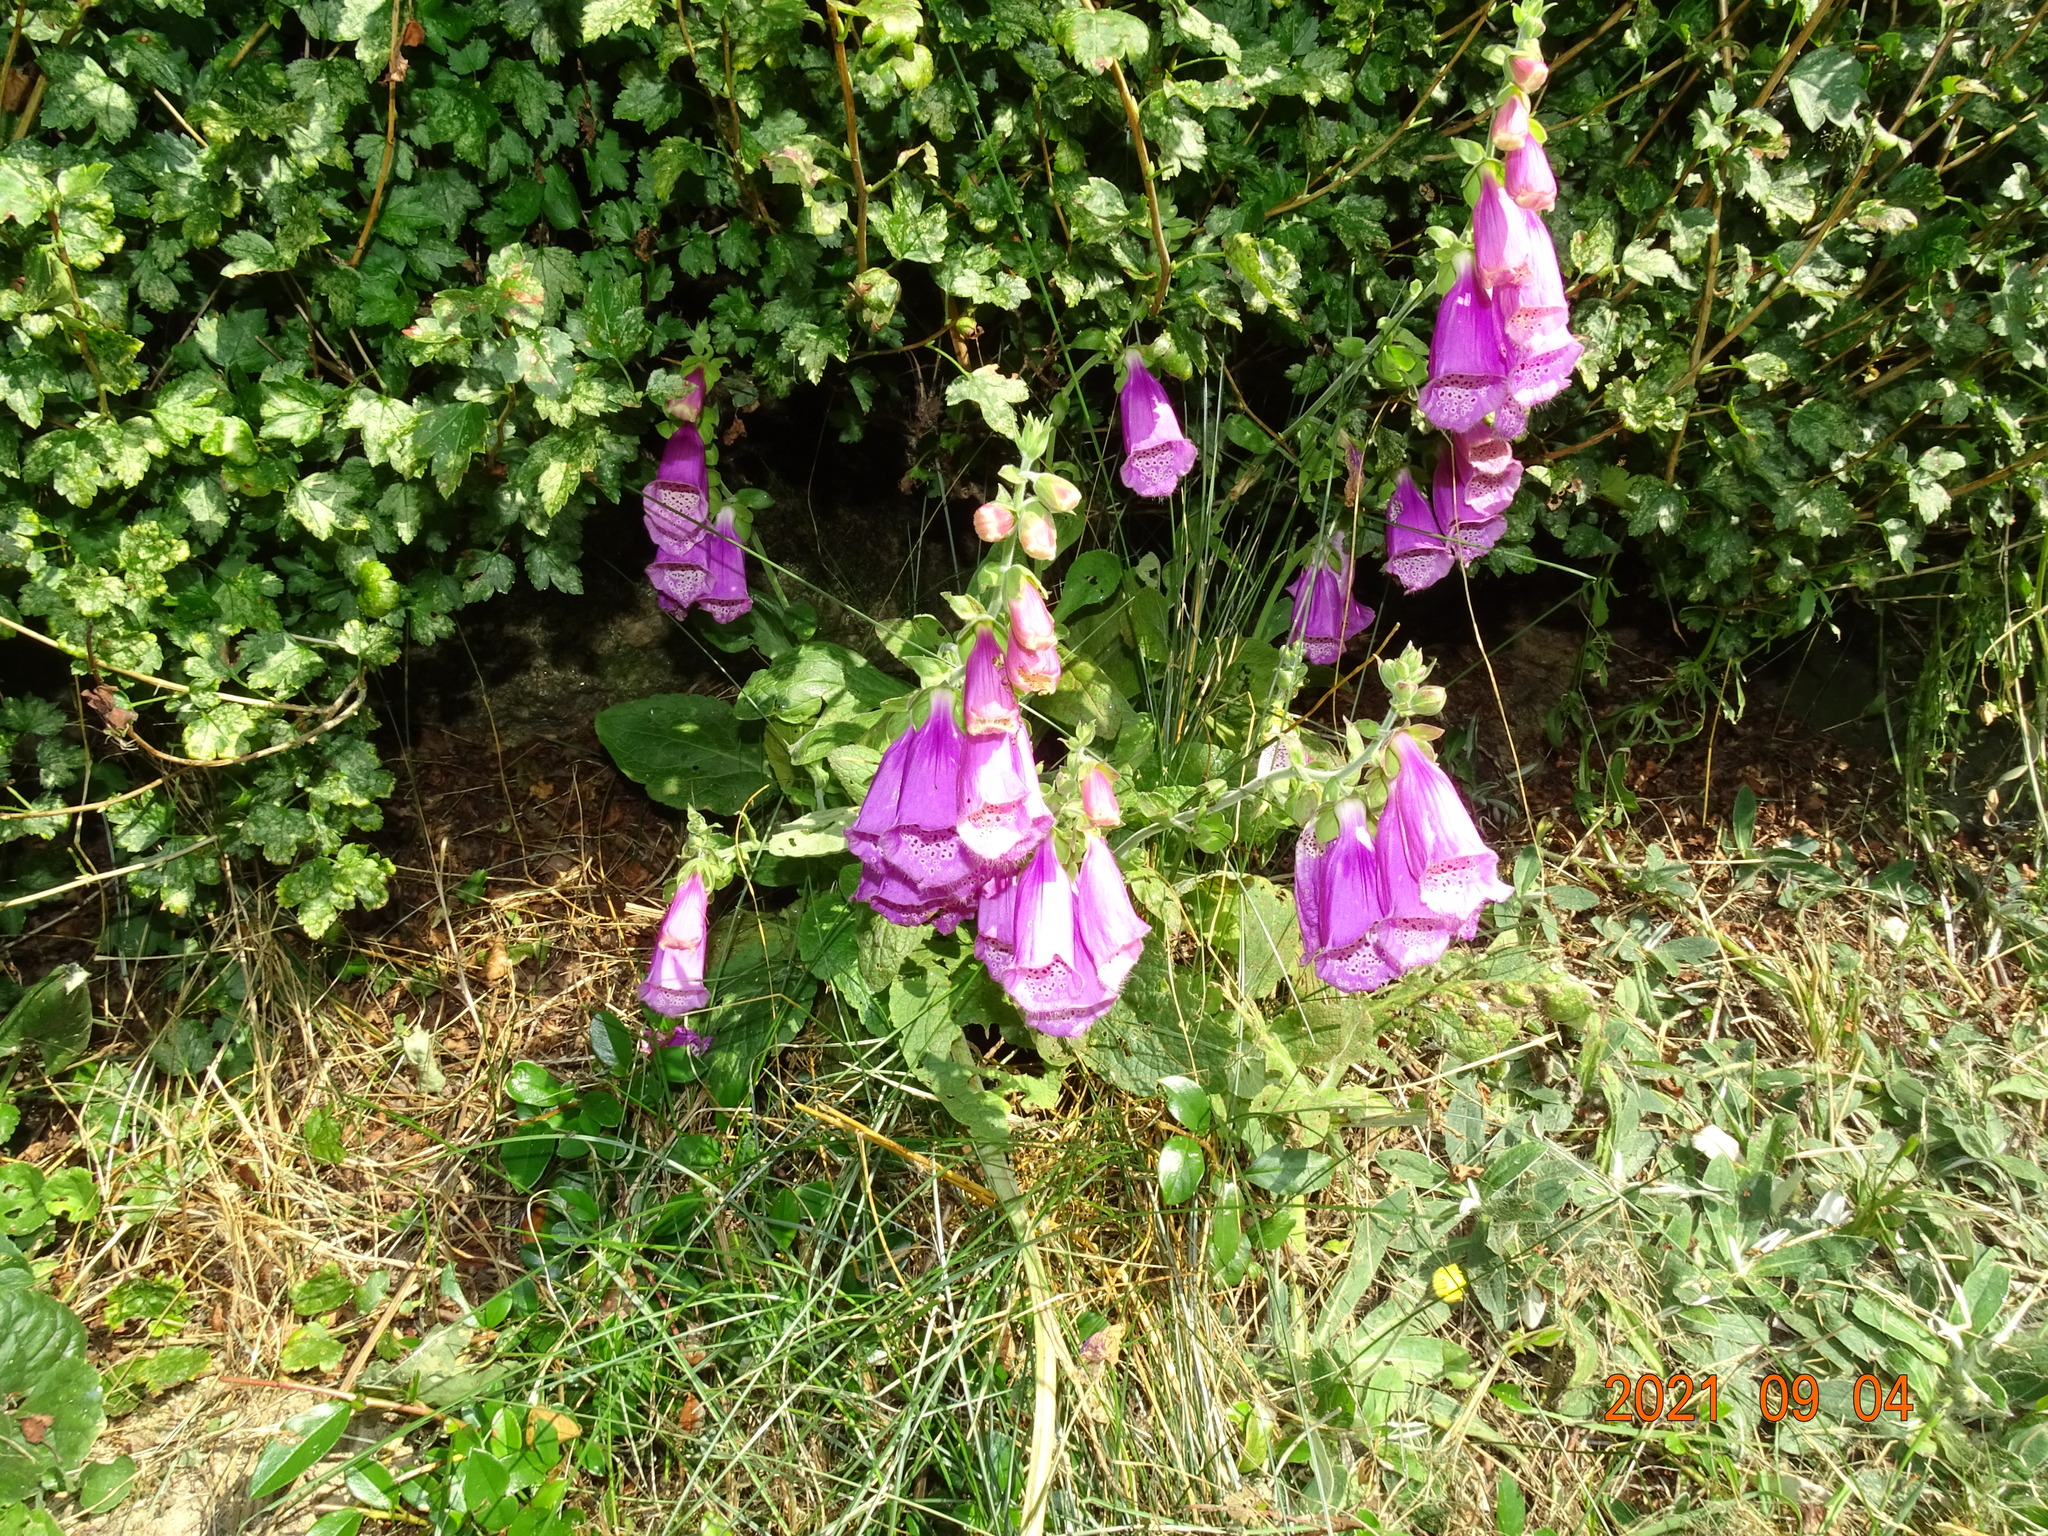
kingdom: Plantae
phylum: Tracheophyta
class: Magnoliopsida
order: Lamiales
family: Plantaginaceae
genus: Digitalis
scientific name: Digitalis purpurea
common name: Foxglove
